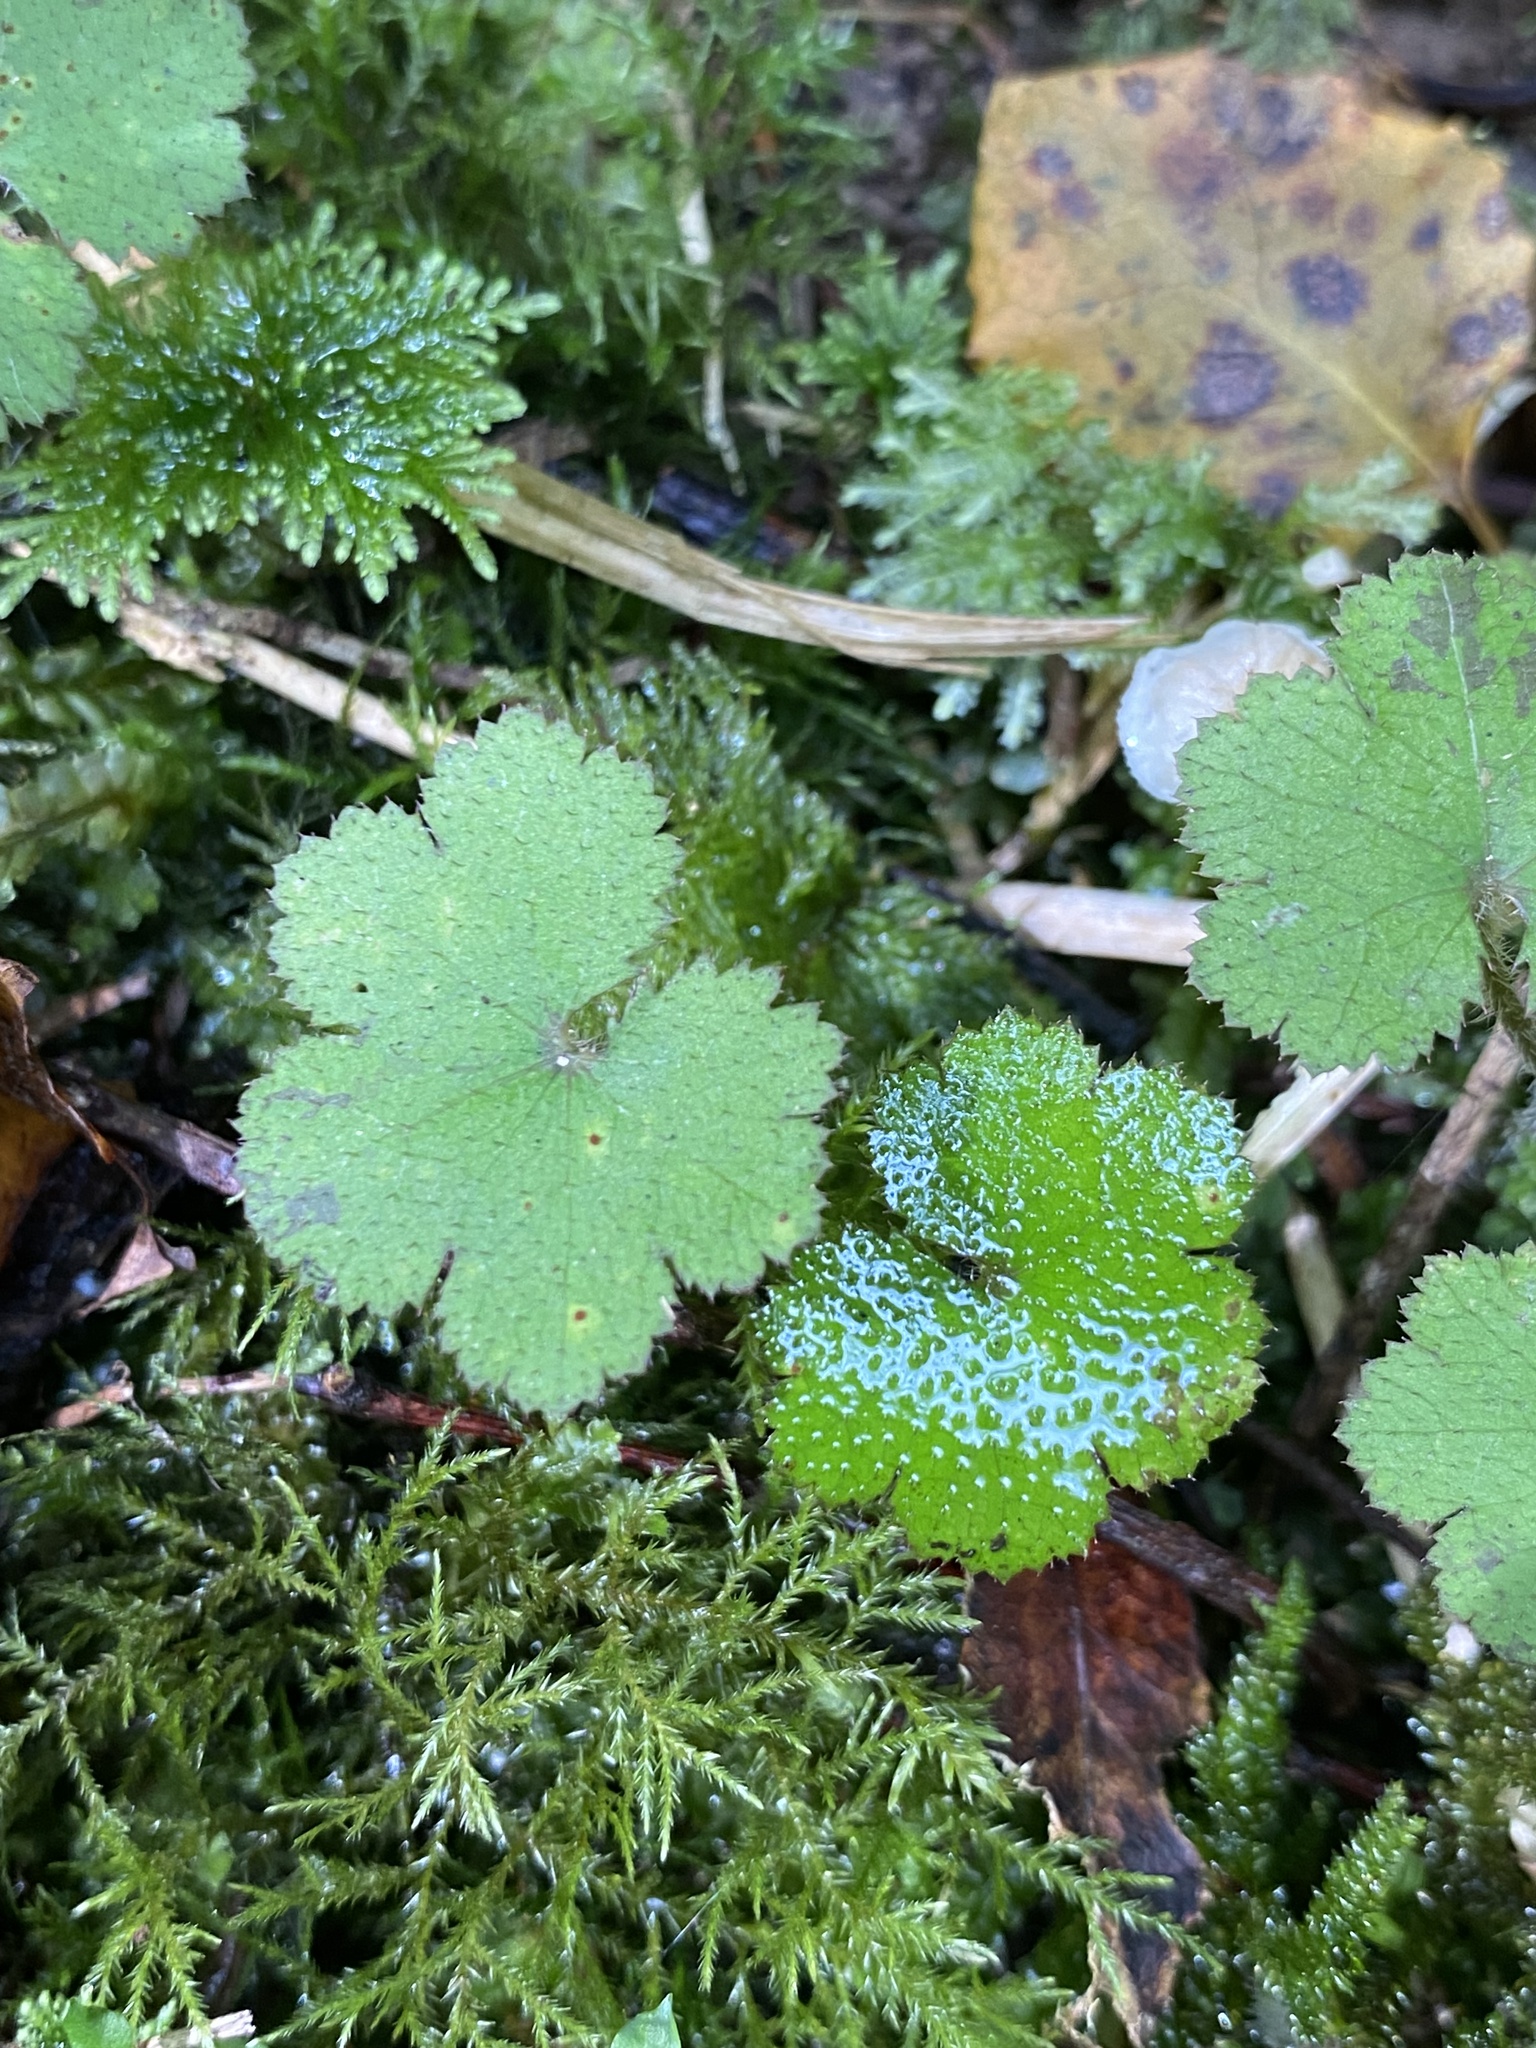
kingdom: Plantae
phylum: Tracheophyta
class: Magnoliopsida
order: Apiales
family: Araliaceae
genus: Hydrocotyle
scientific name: Hydrocotyle moschata
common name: Hairy pennywort
